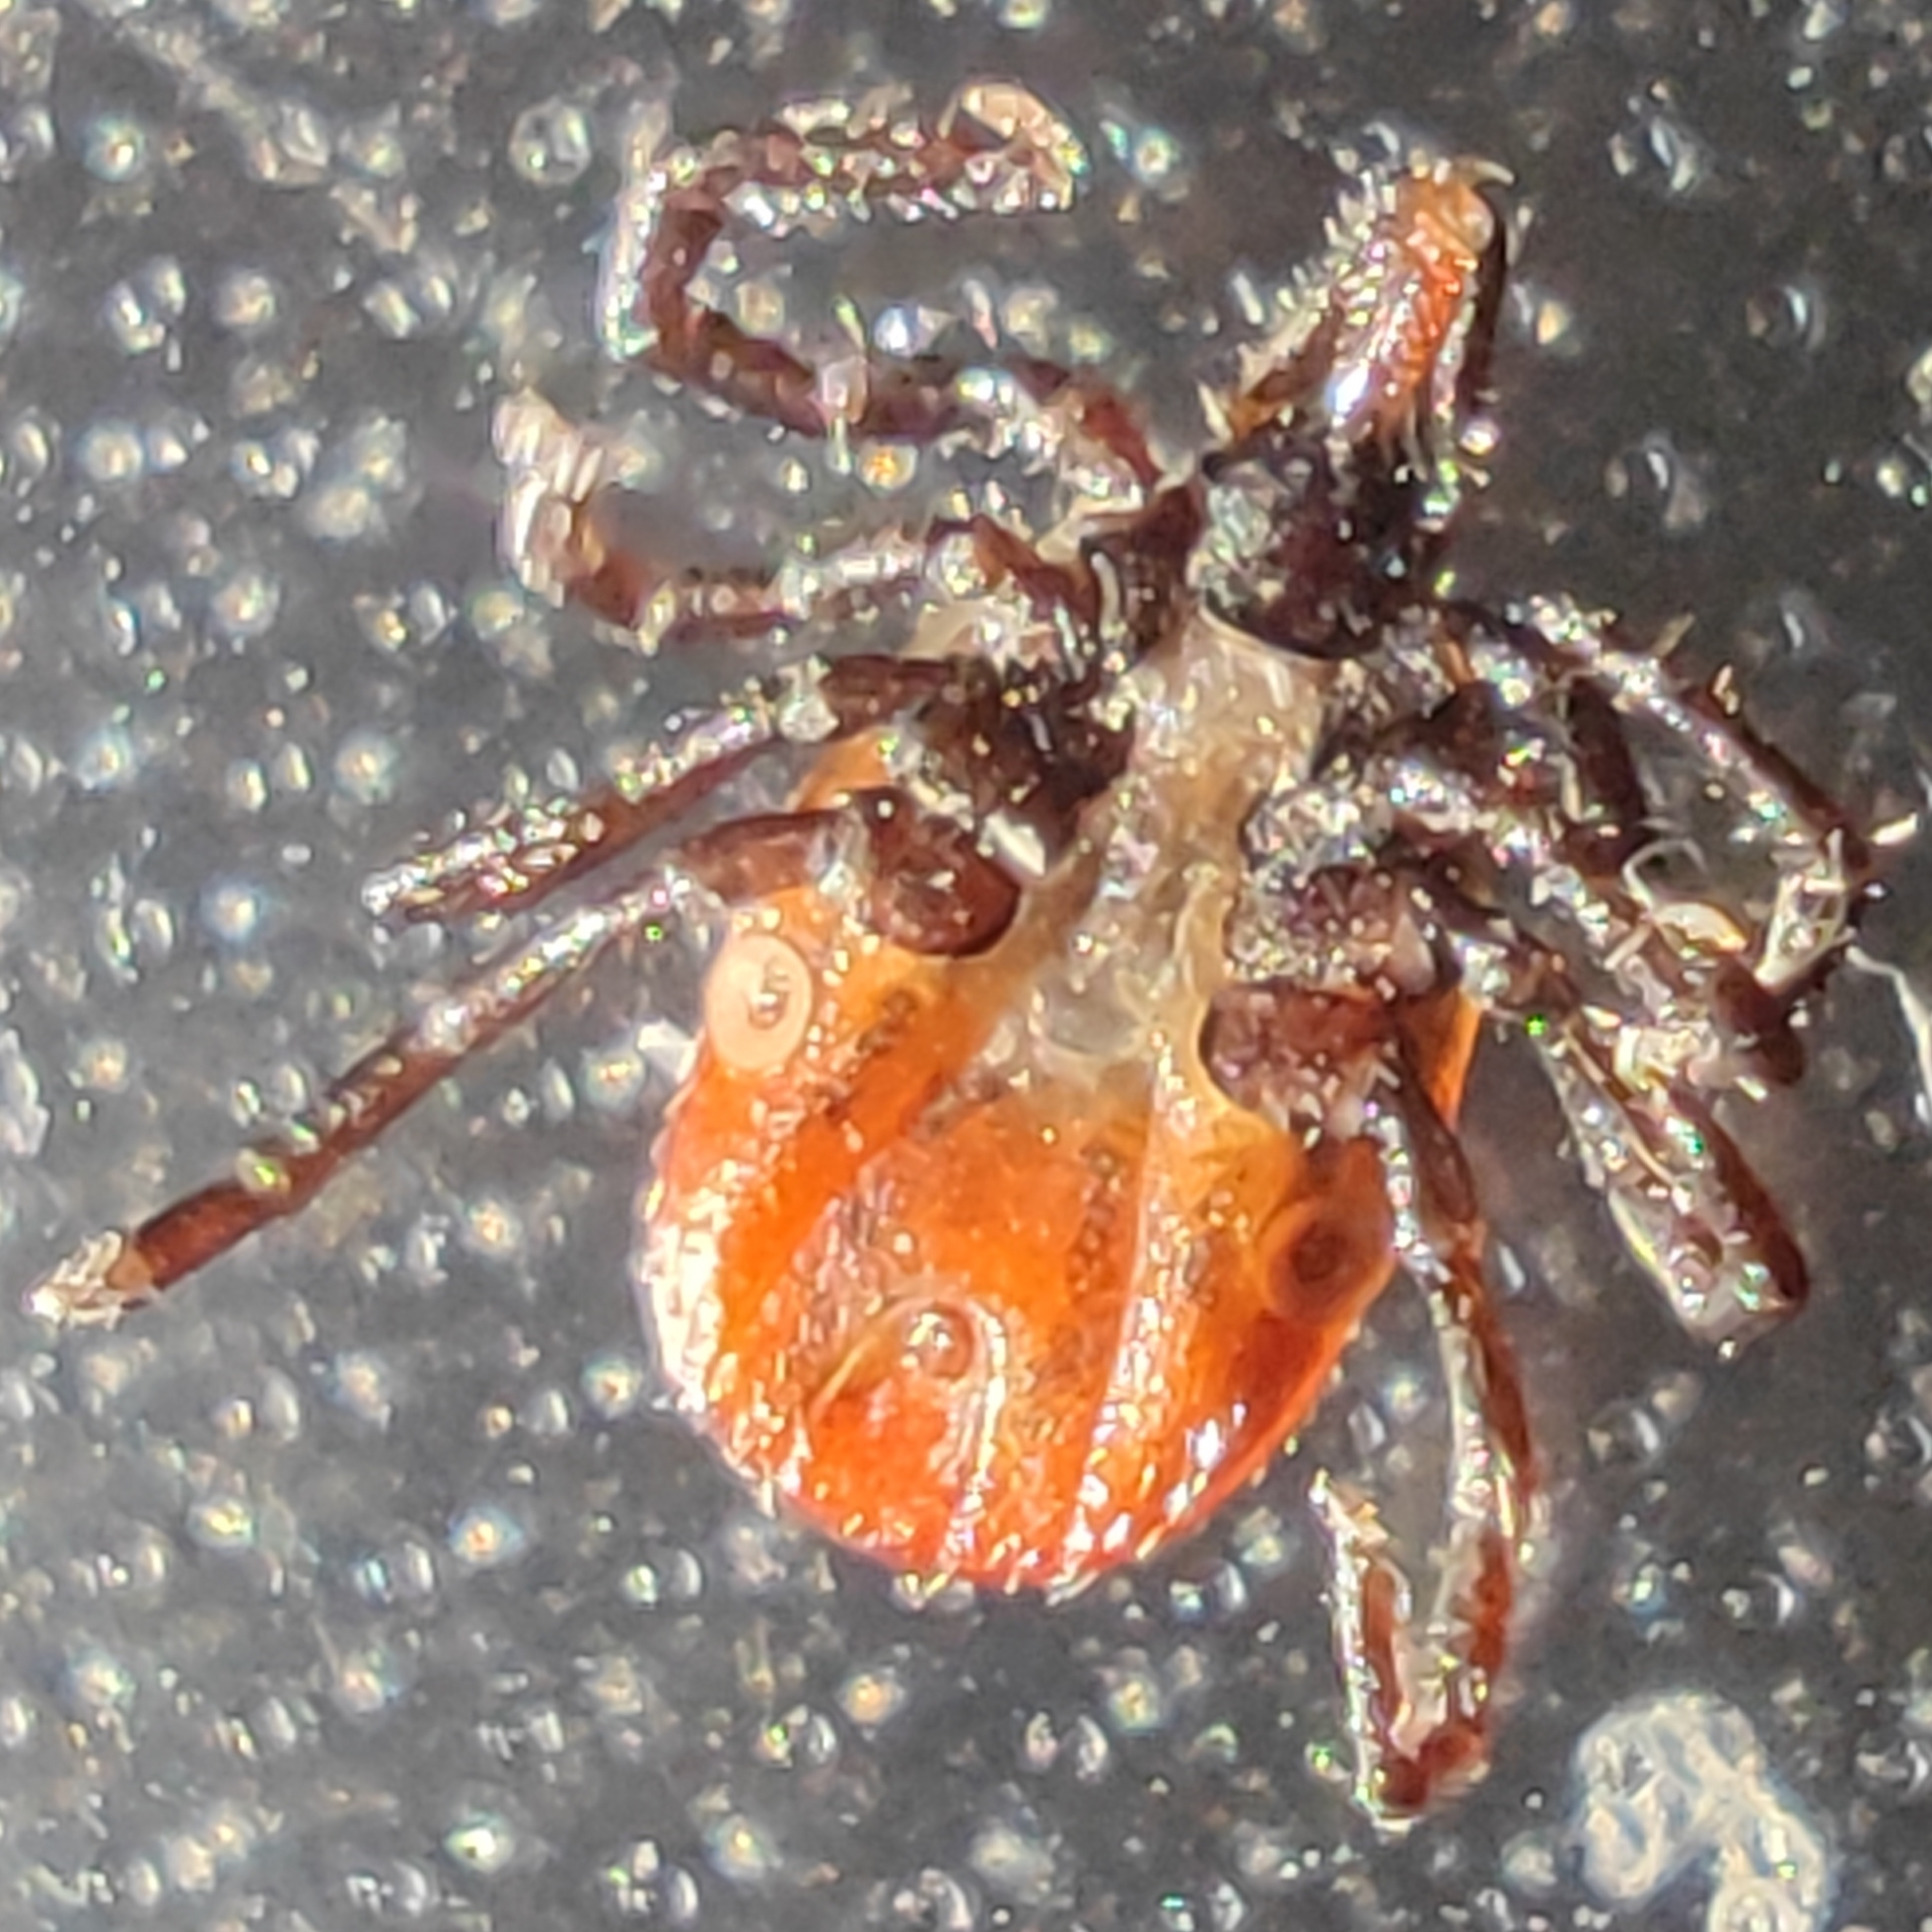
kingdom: Animalia
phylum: Arthropoda
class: Arachnida
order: Ixodida
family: Ixodidae
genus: Ixodes
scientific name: Ixodes ricinus
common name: Castor bean tick
